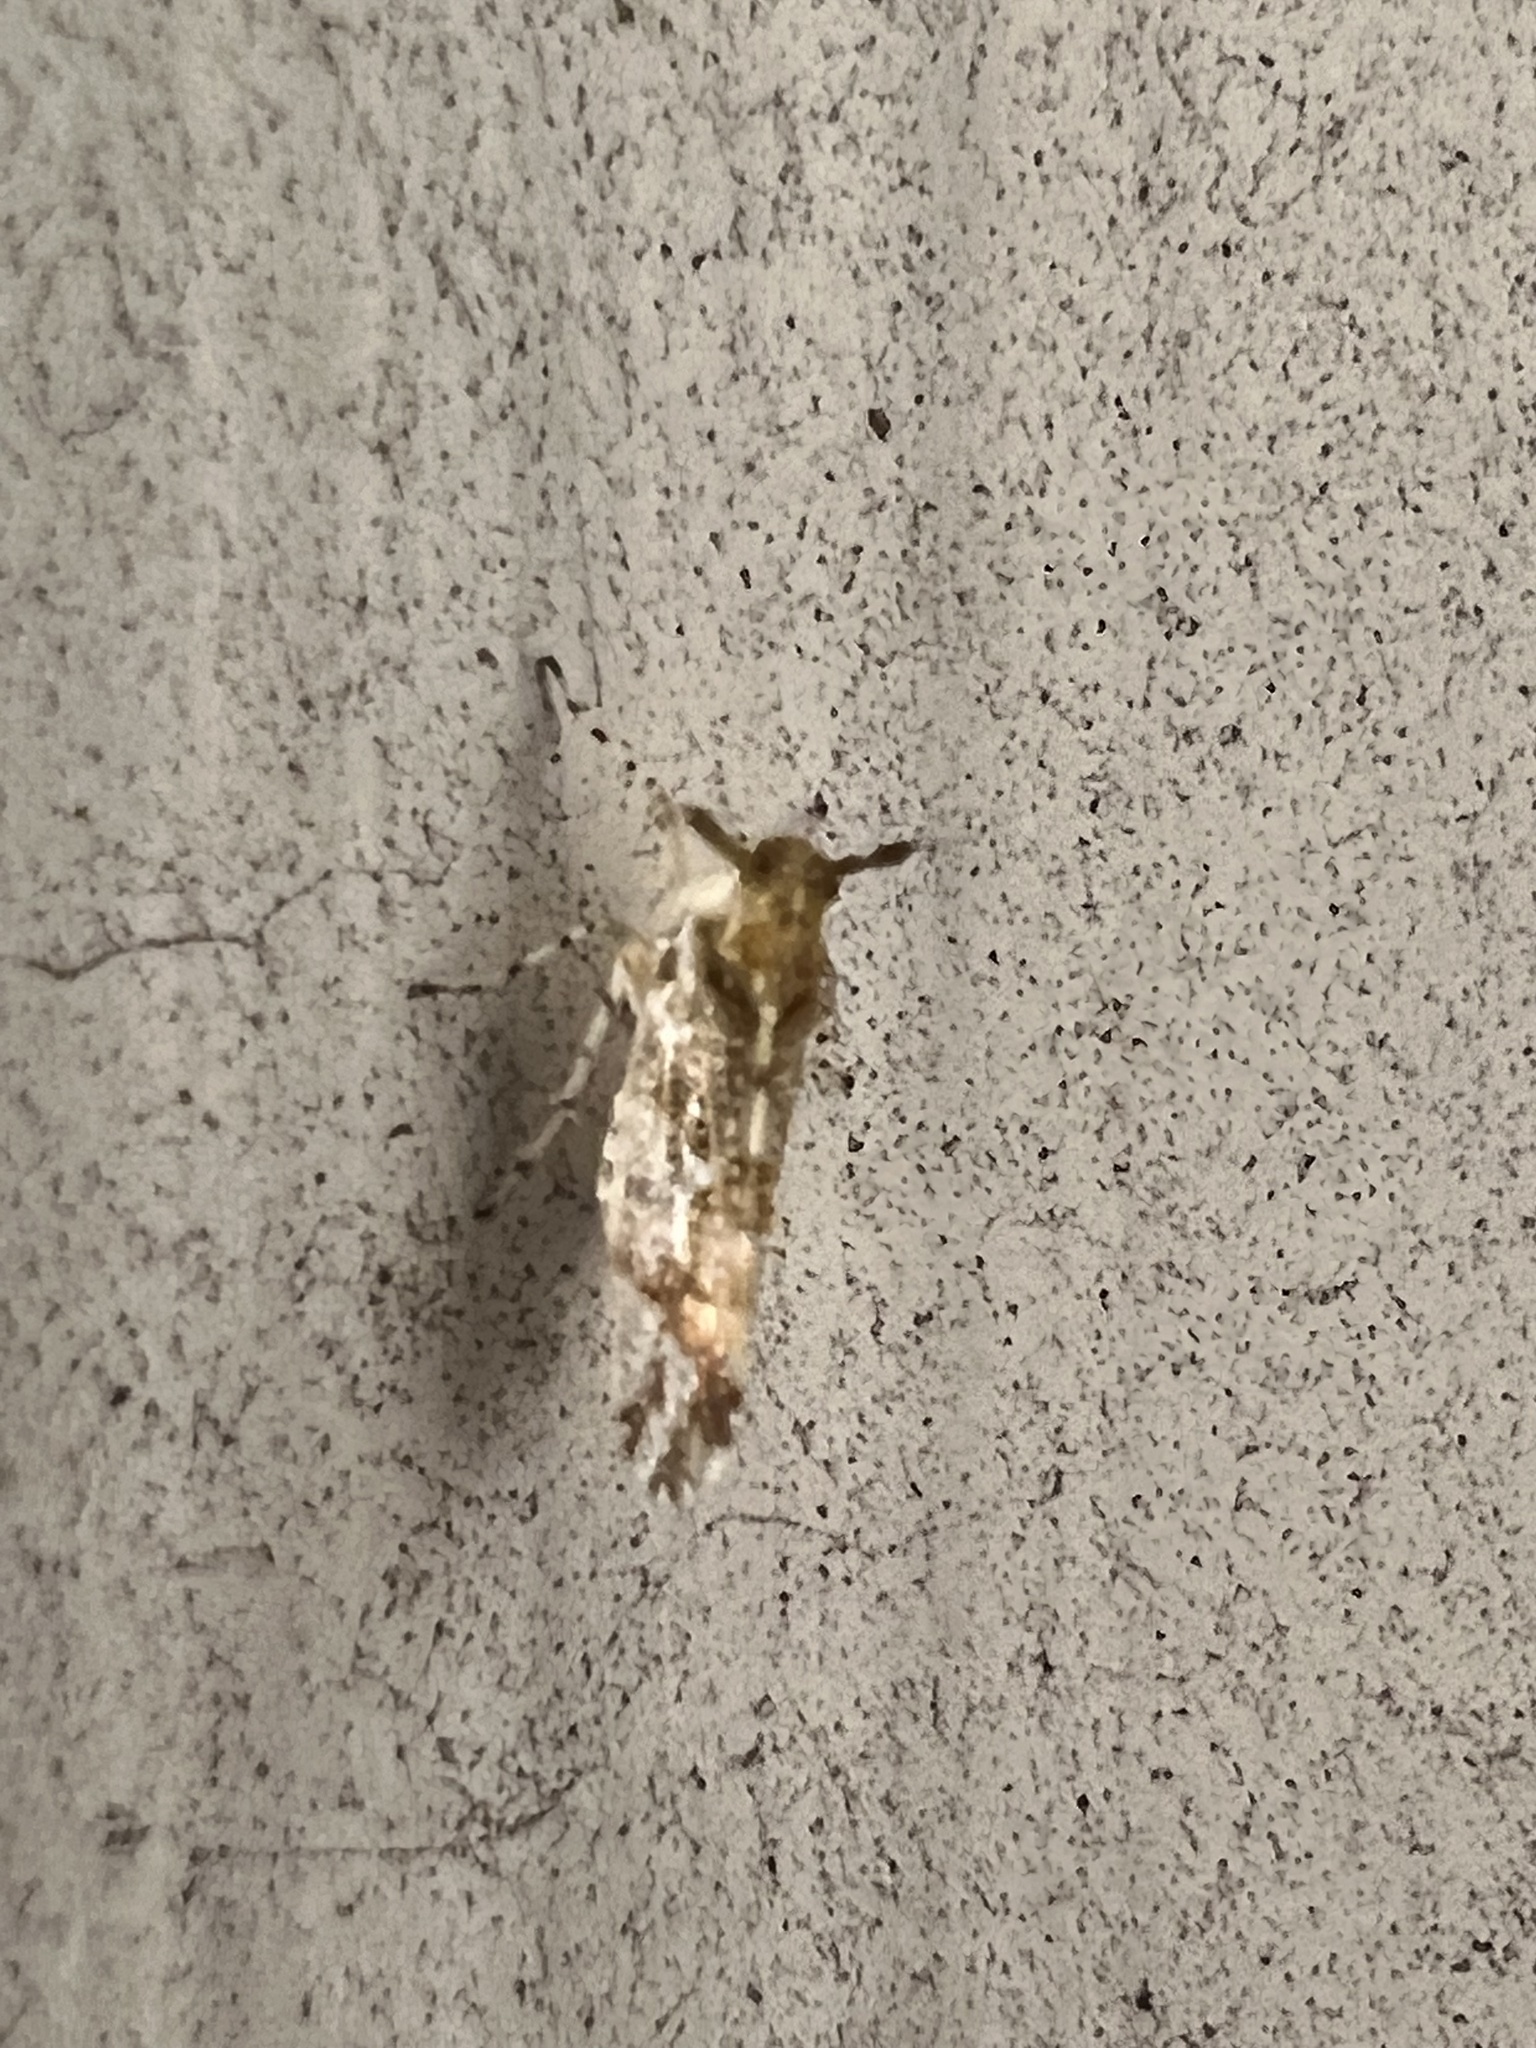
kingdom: Animalia
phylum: Arthropoda
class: Insecta
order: Hemiptera
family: Delphacidae
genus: Stobaera
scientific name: Stobaera tricarinata
